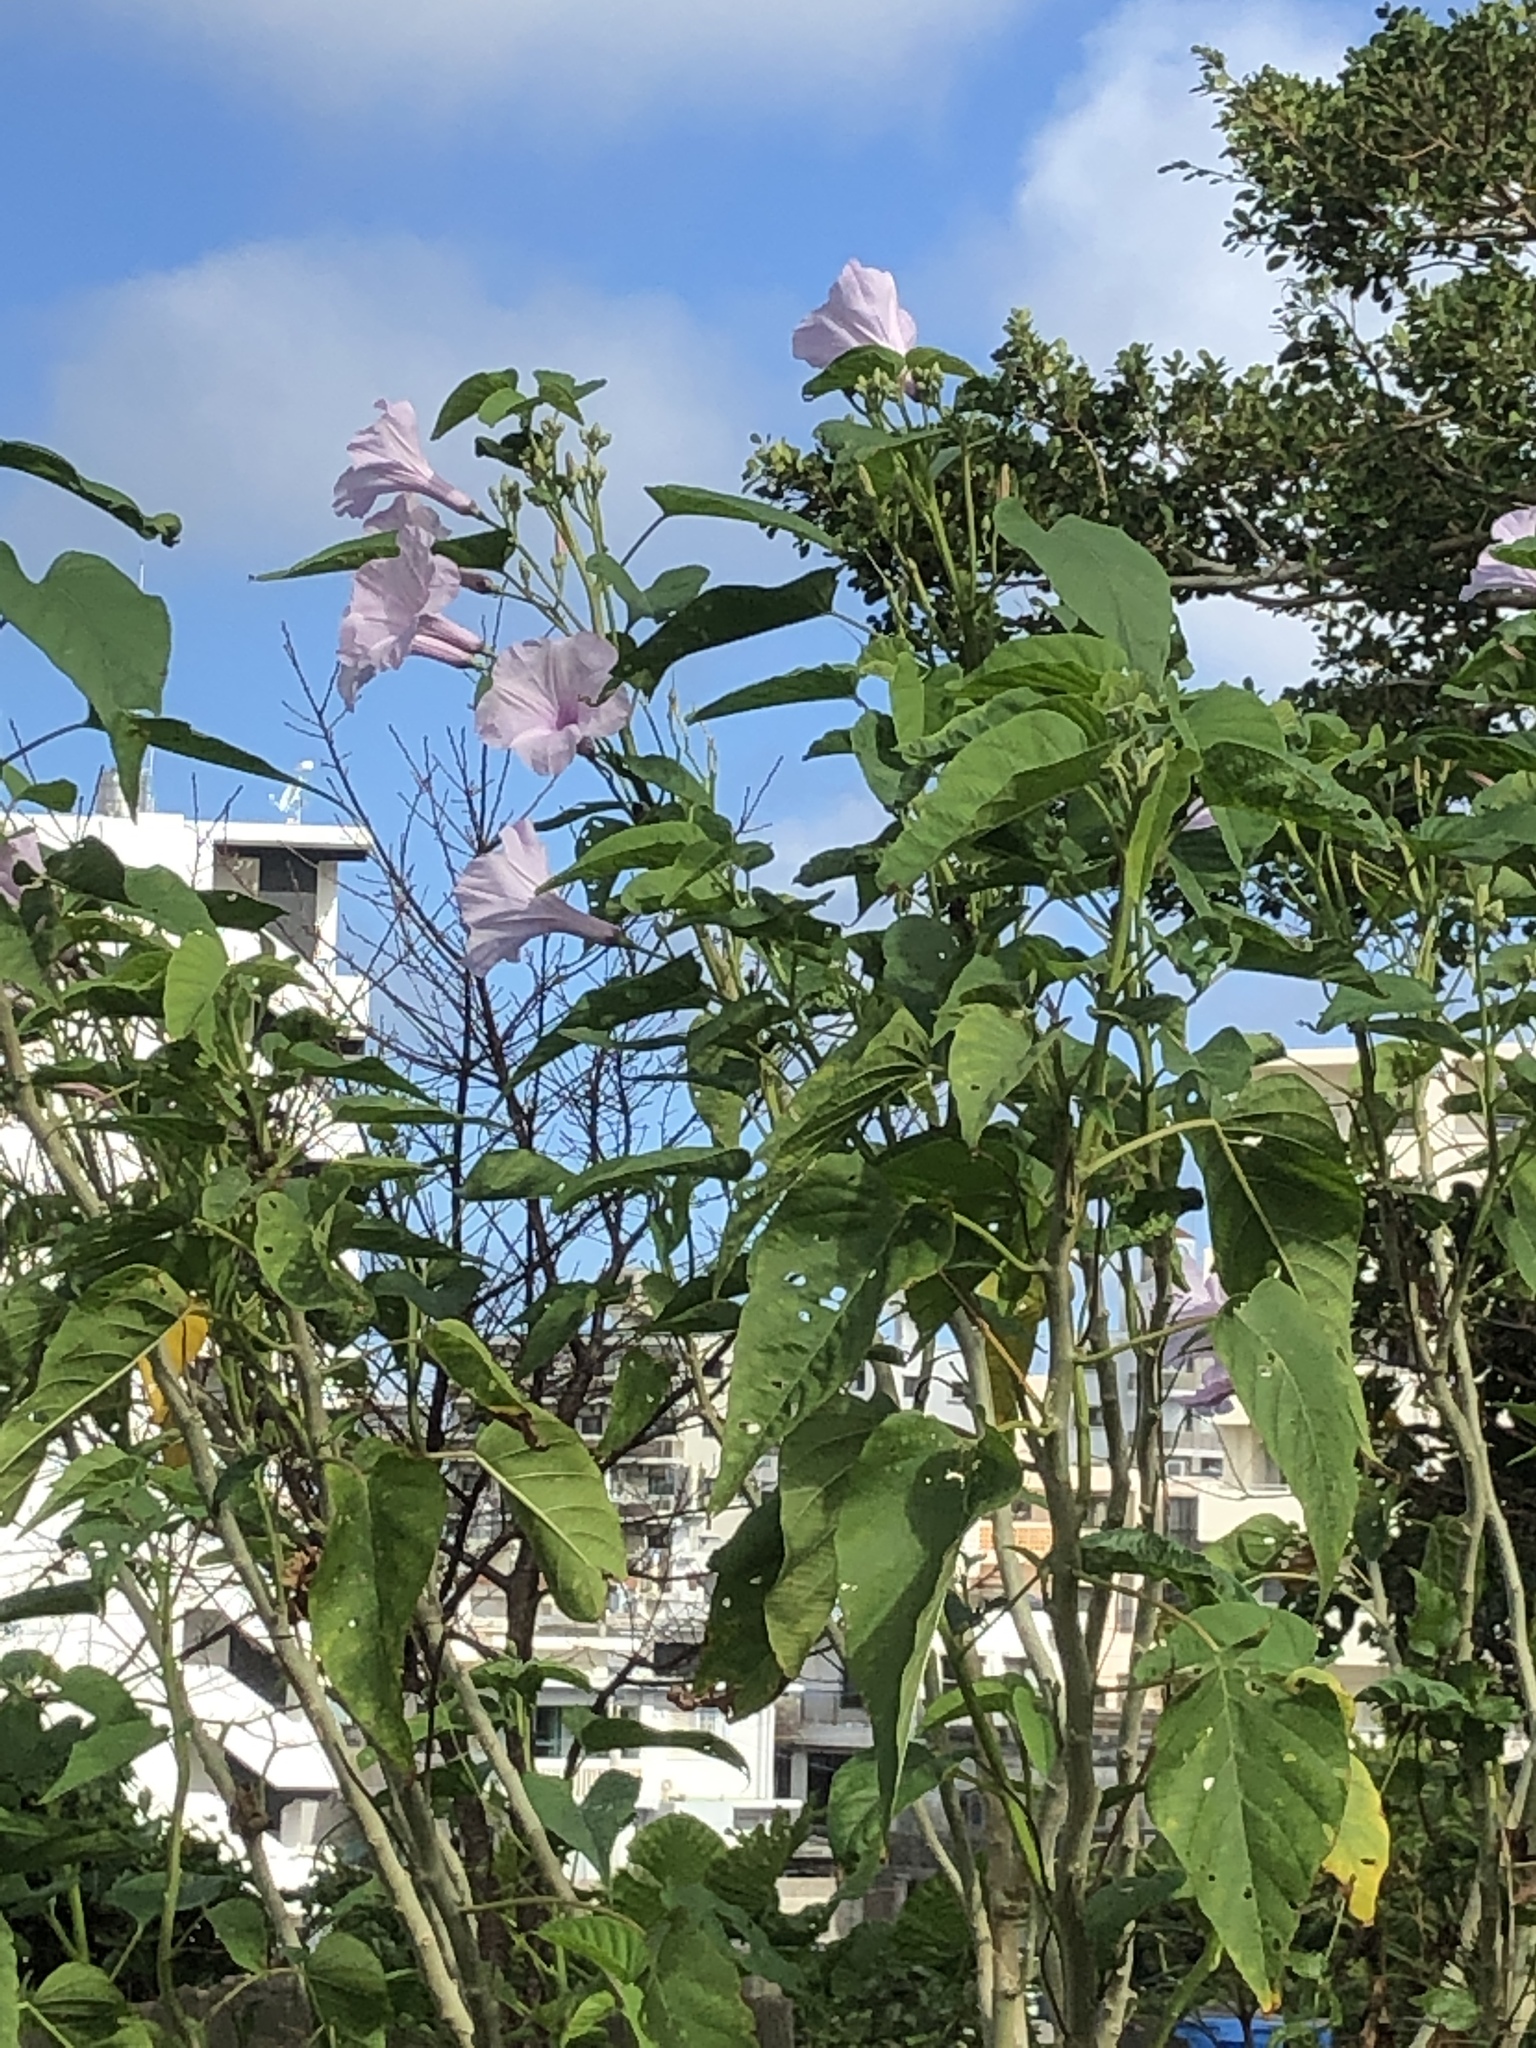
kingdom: Plantae
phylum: Tracheophyta
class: Magnoliopsida
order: Solanales
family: Convolvulaceae
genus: Ipomoea
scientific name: Ipomoea carnea
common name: Morning-glory
